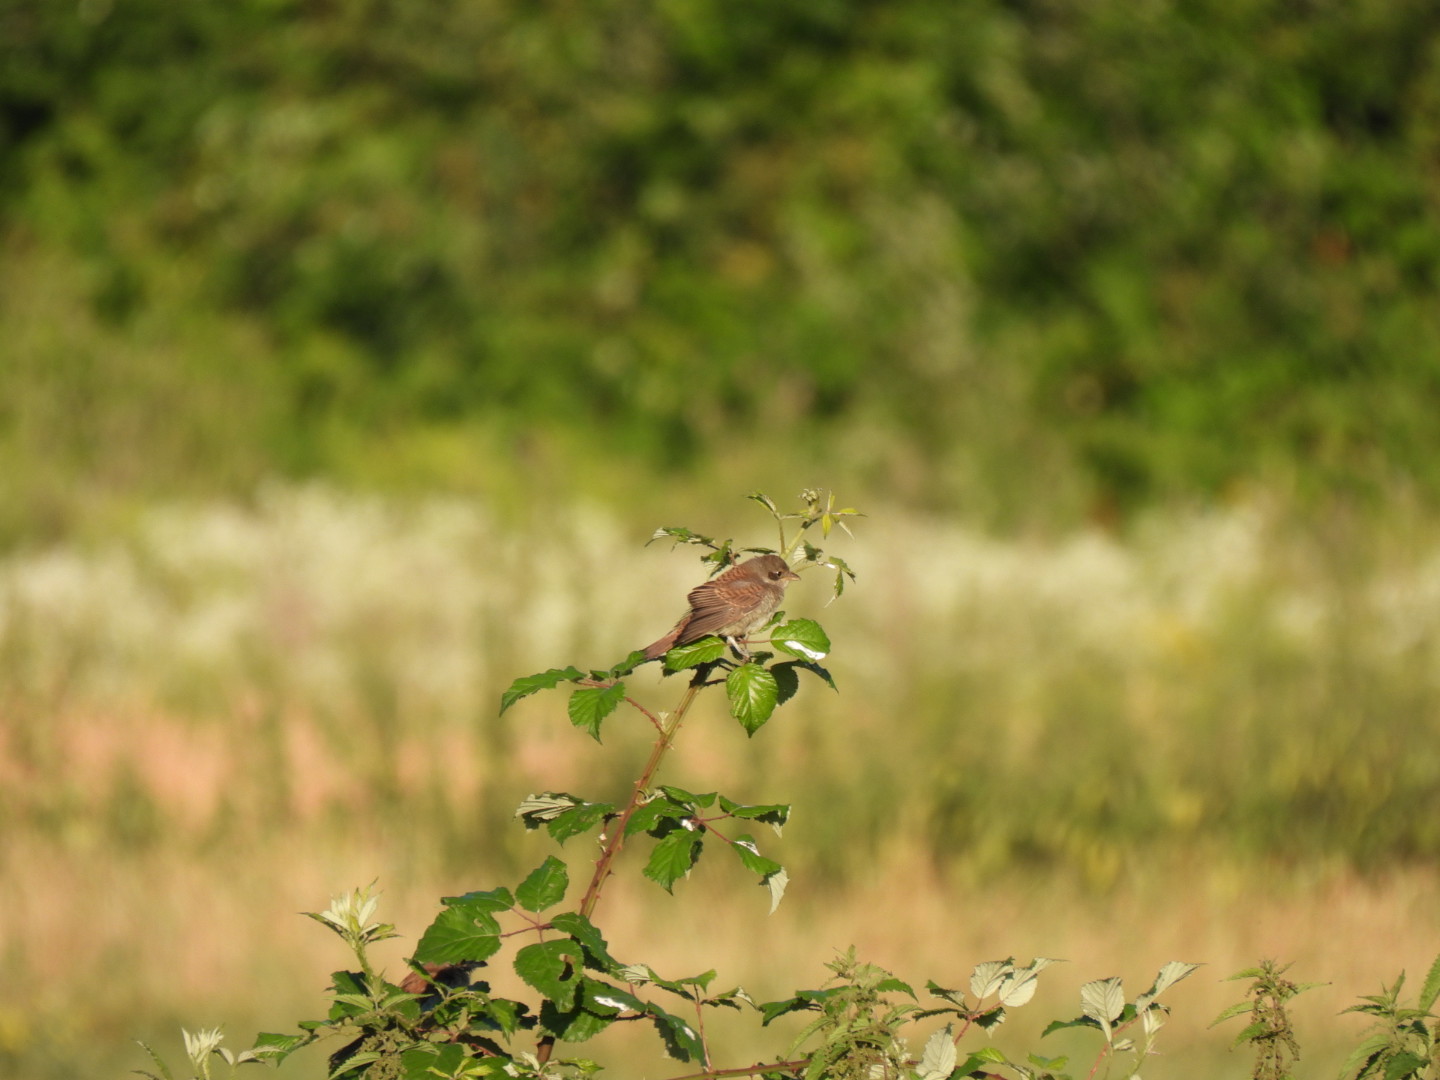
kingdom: Animalia
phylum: Chordata
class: Aves
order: Passeriformes
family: Laniidae
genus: Lanius
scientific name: Lanius collurio
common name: Red-backed shrike
